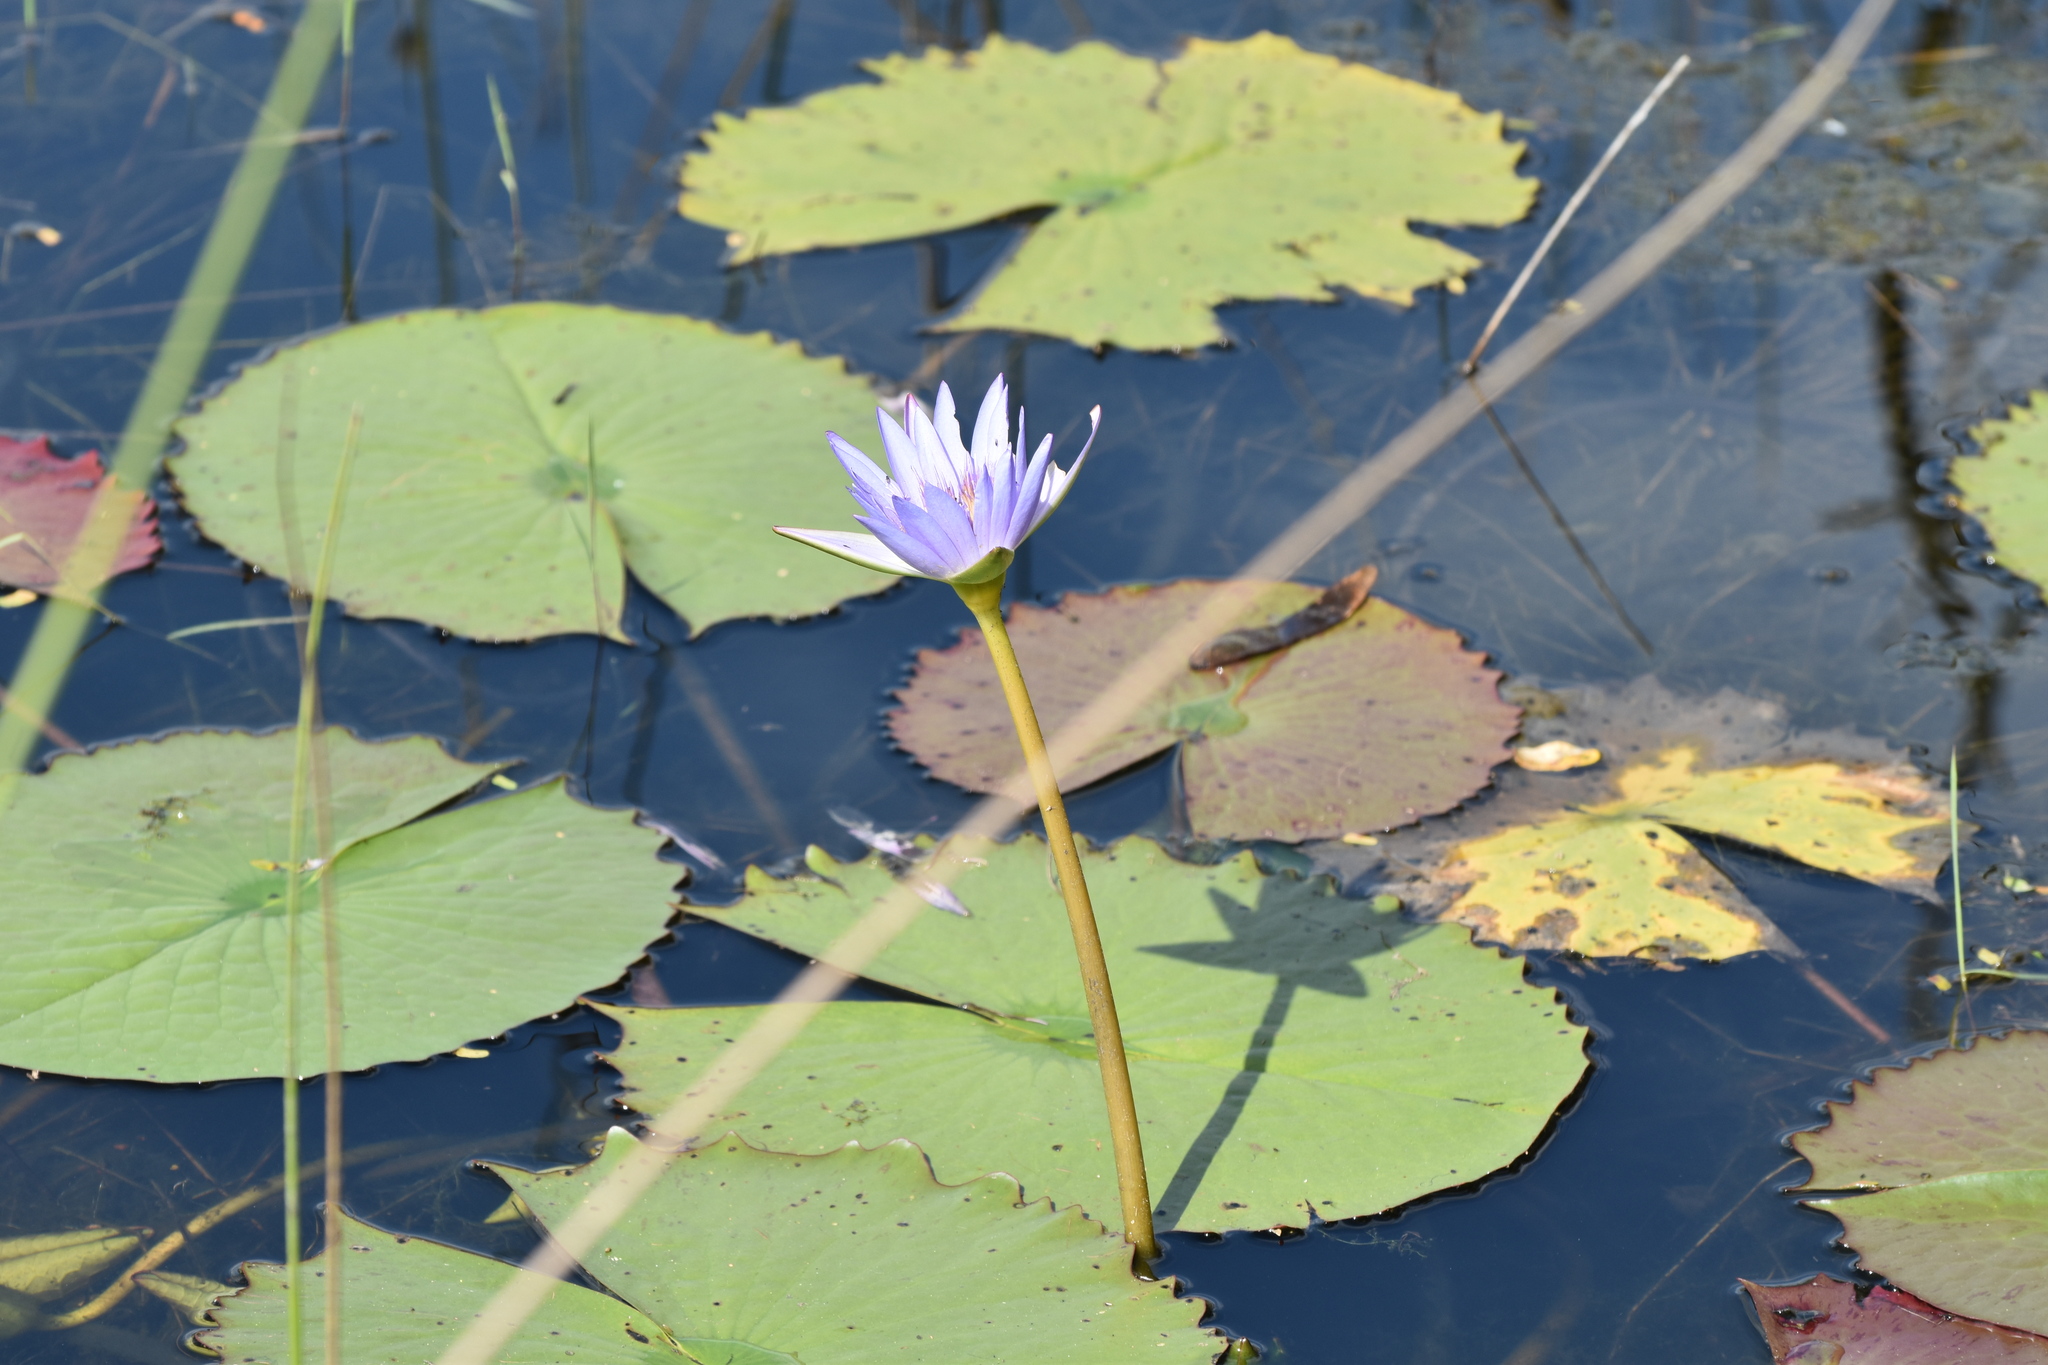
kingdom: Plantae
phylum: Tracheophyta
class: Magnoliopsida
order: Nymphaeales
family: Nymphaeaceae
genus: Nymphaea
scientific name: Nymphaea nouchali
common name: Blue lotus
